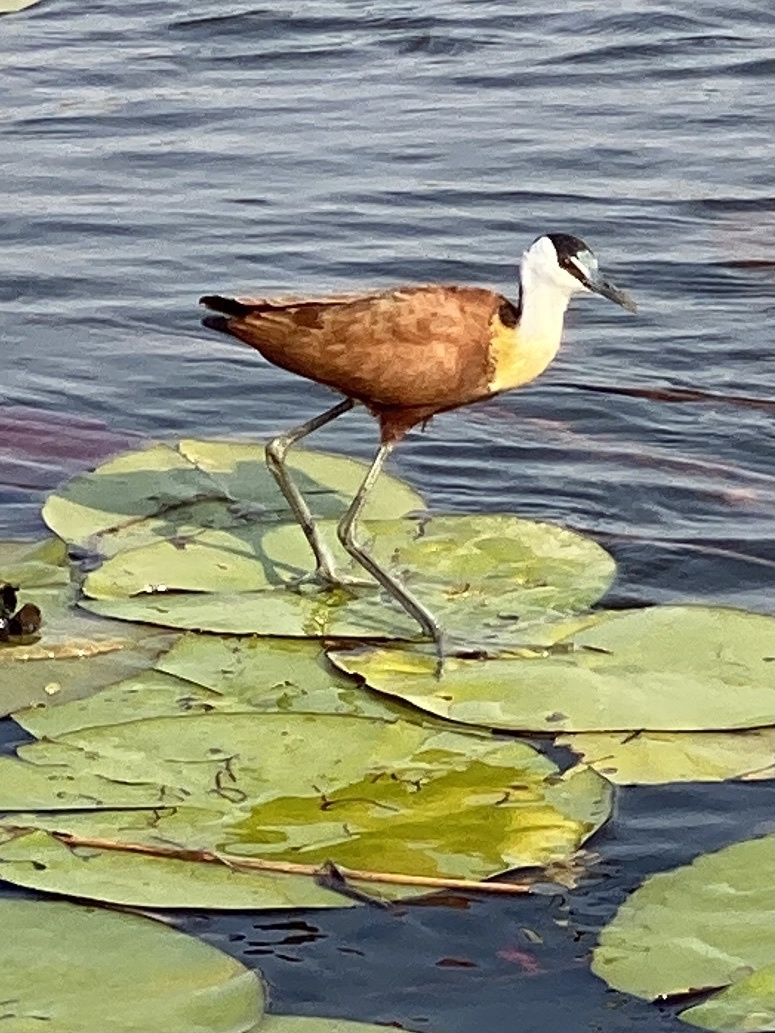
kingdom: Animalia
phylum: Chordata
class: Aves
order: Charadriiformes
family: Jacanidae
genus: Actophilornis
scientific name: Actophilornis africanus
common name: African jacana
